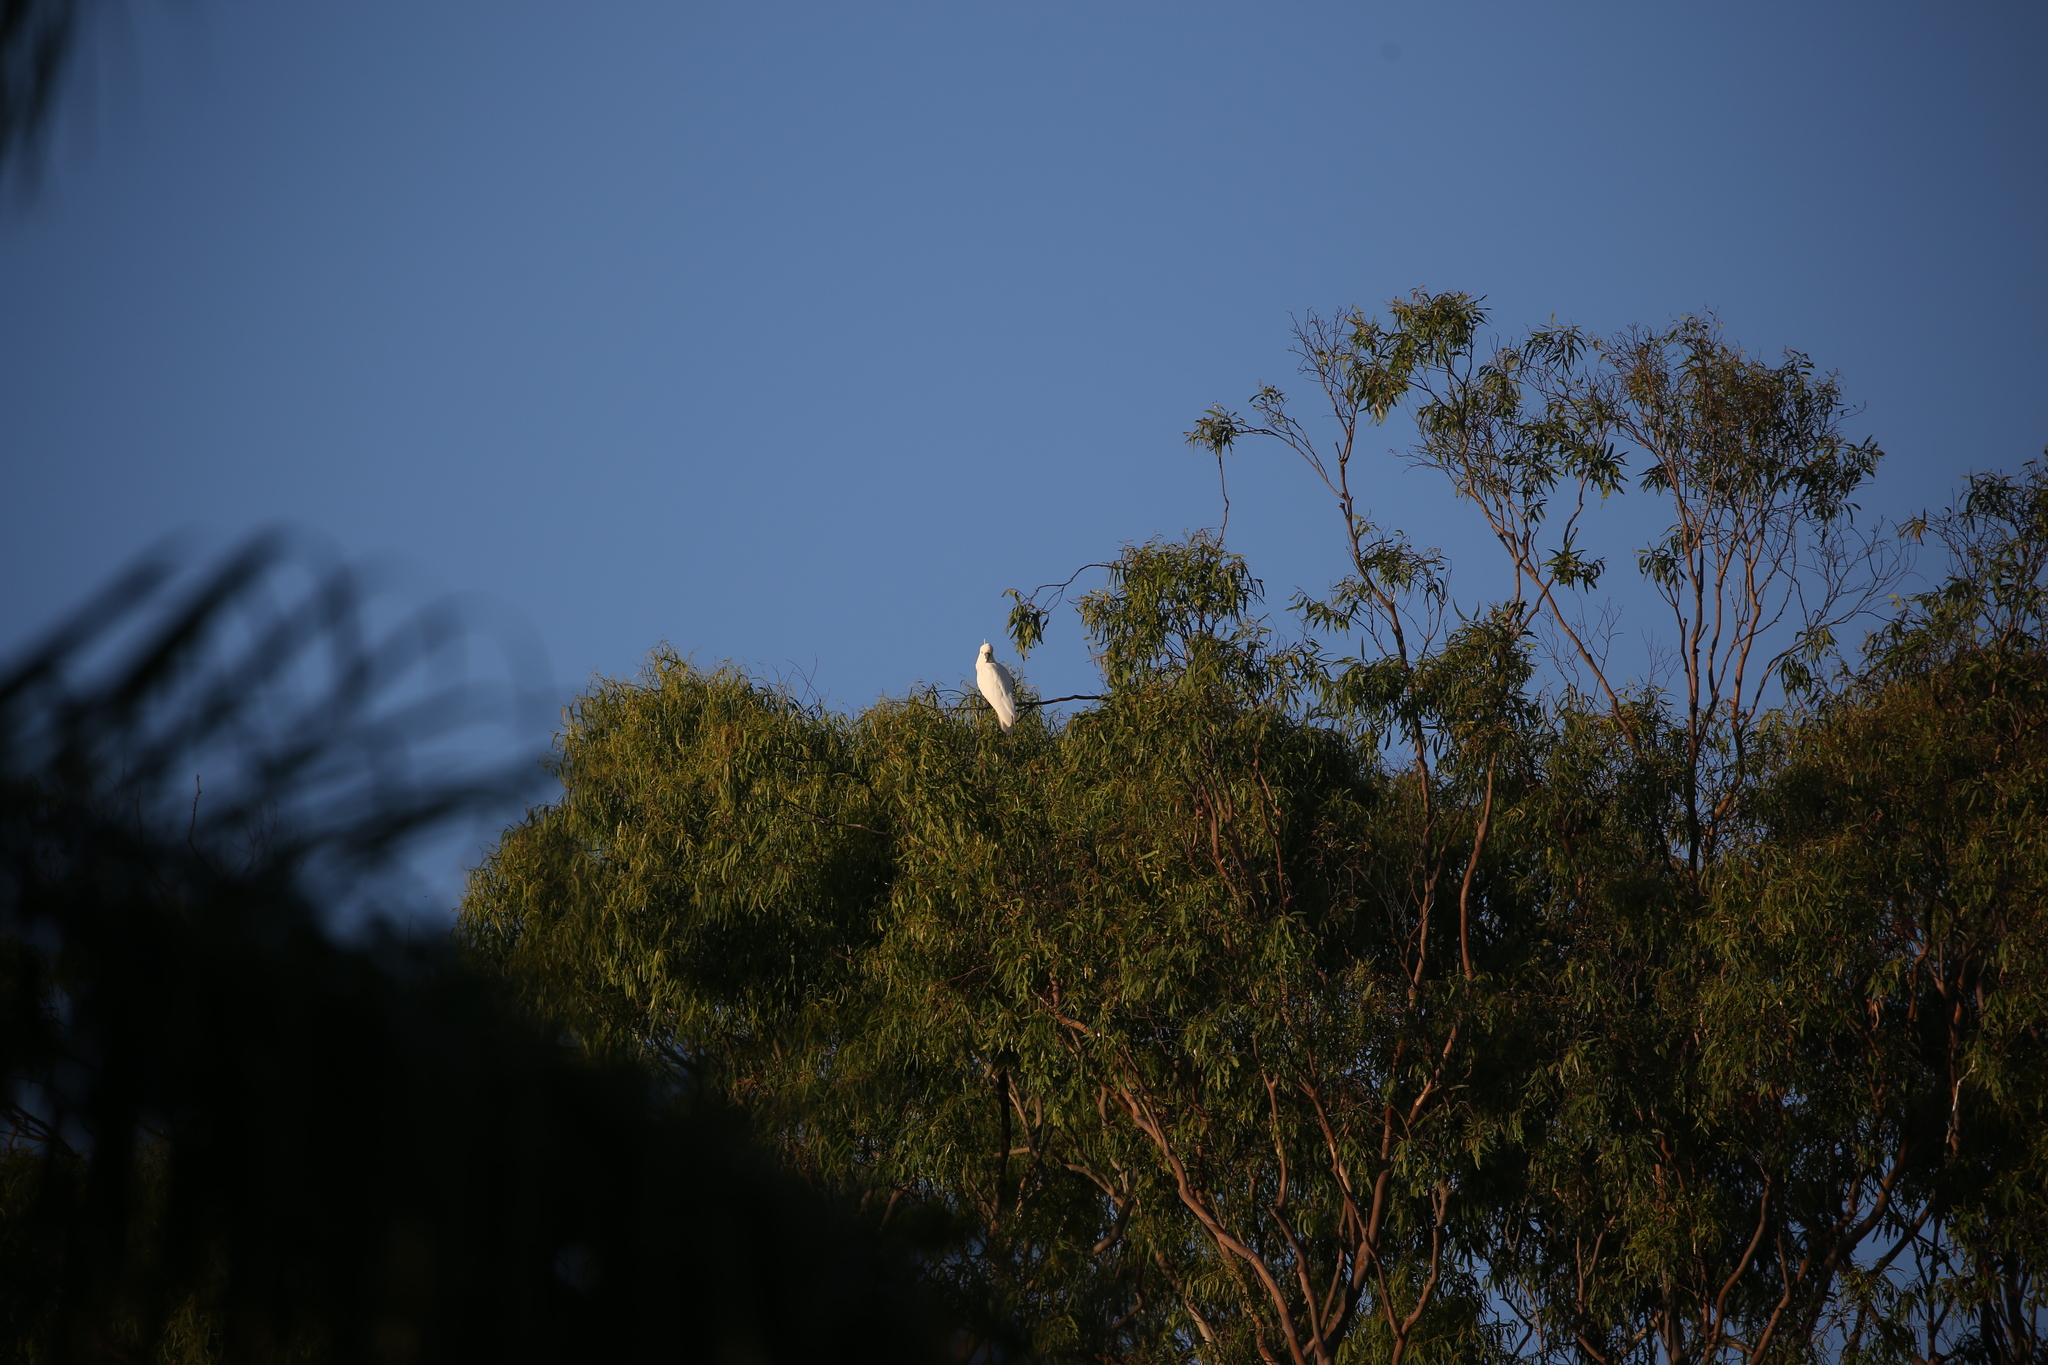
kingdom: Animalia
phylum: Chordata
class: Aves
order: Psittaciformes
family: Psittacidae
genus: Cacatua
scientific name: Cacatua galerita
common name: Sulphur-crested cockatoo
